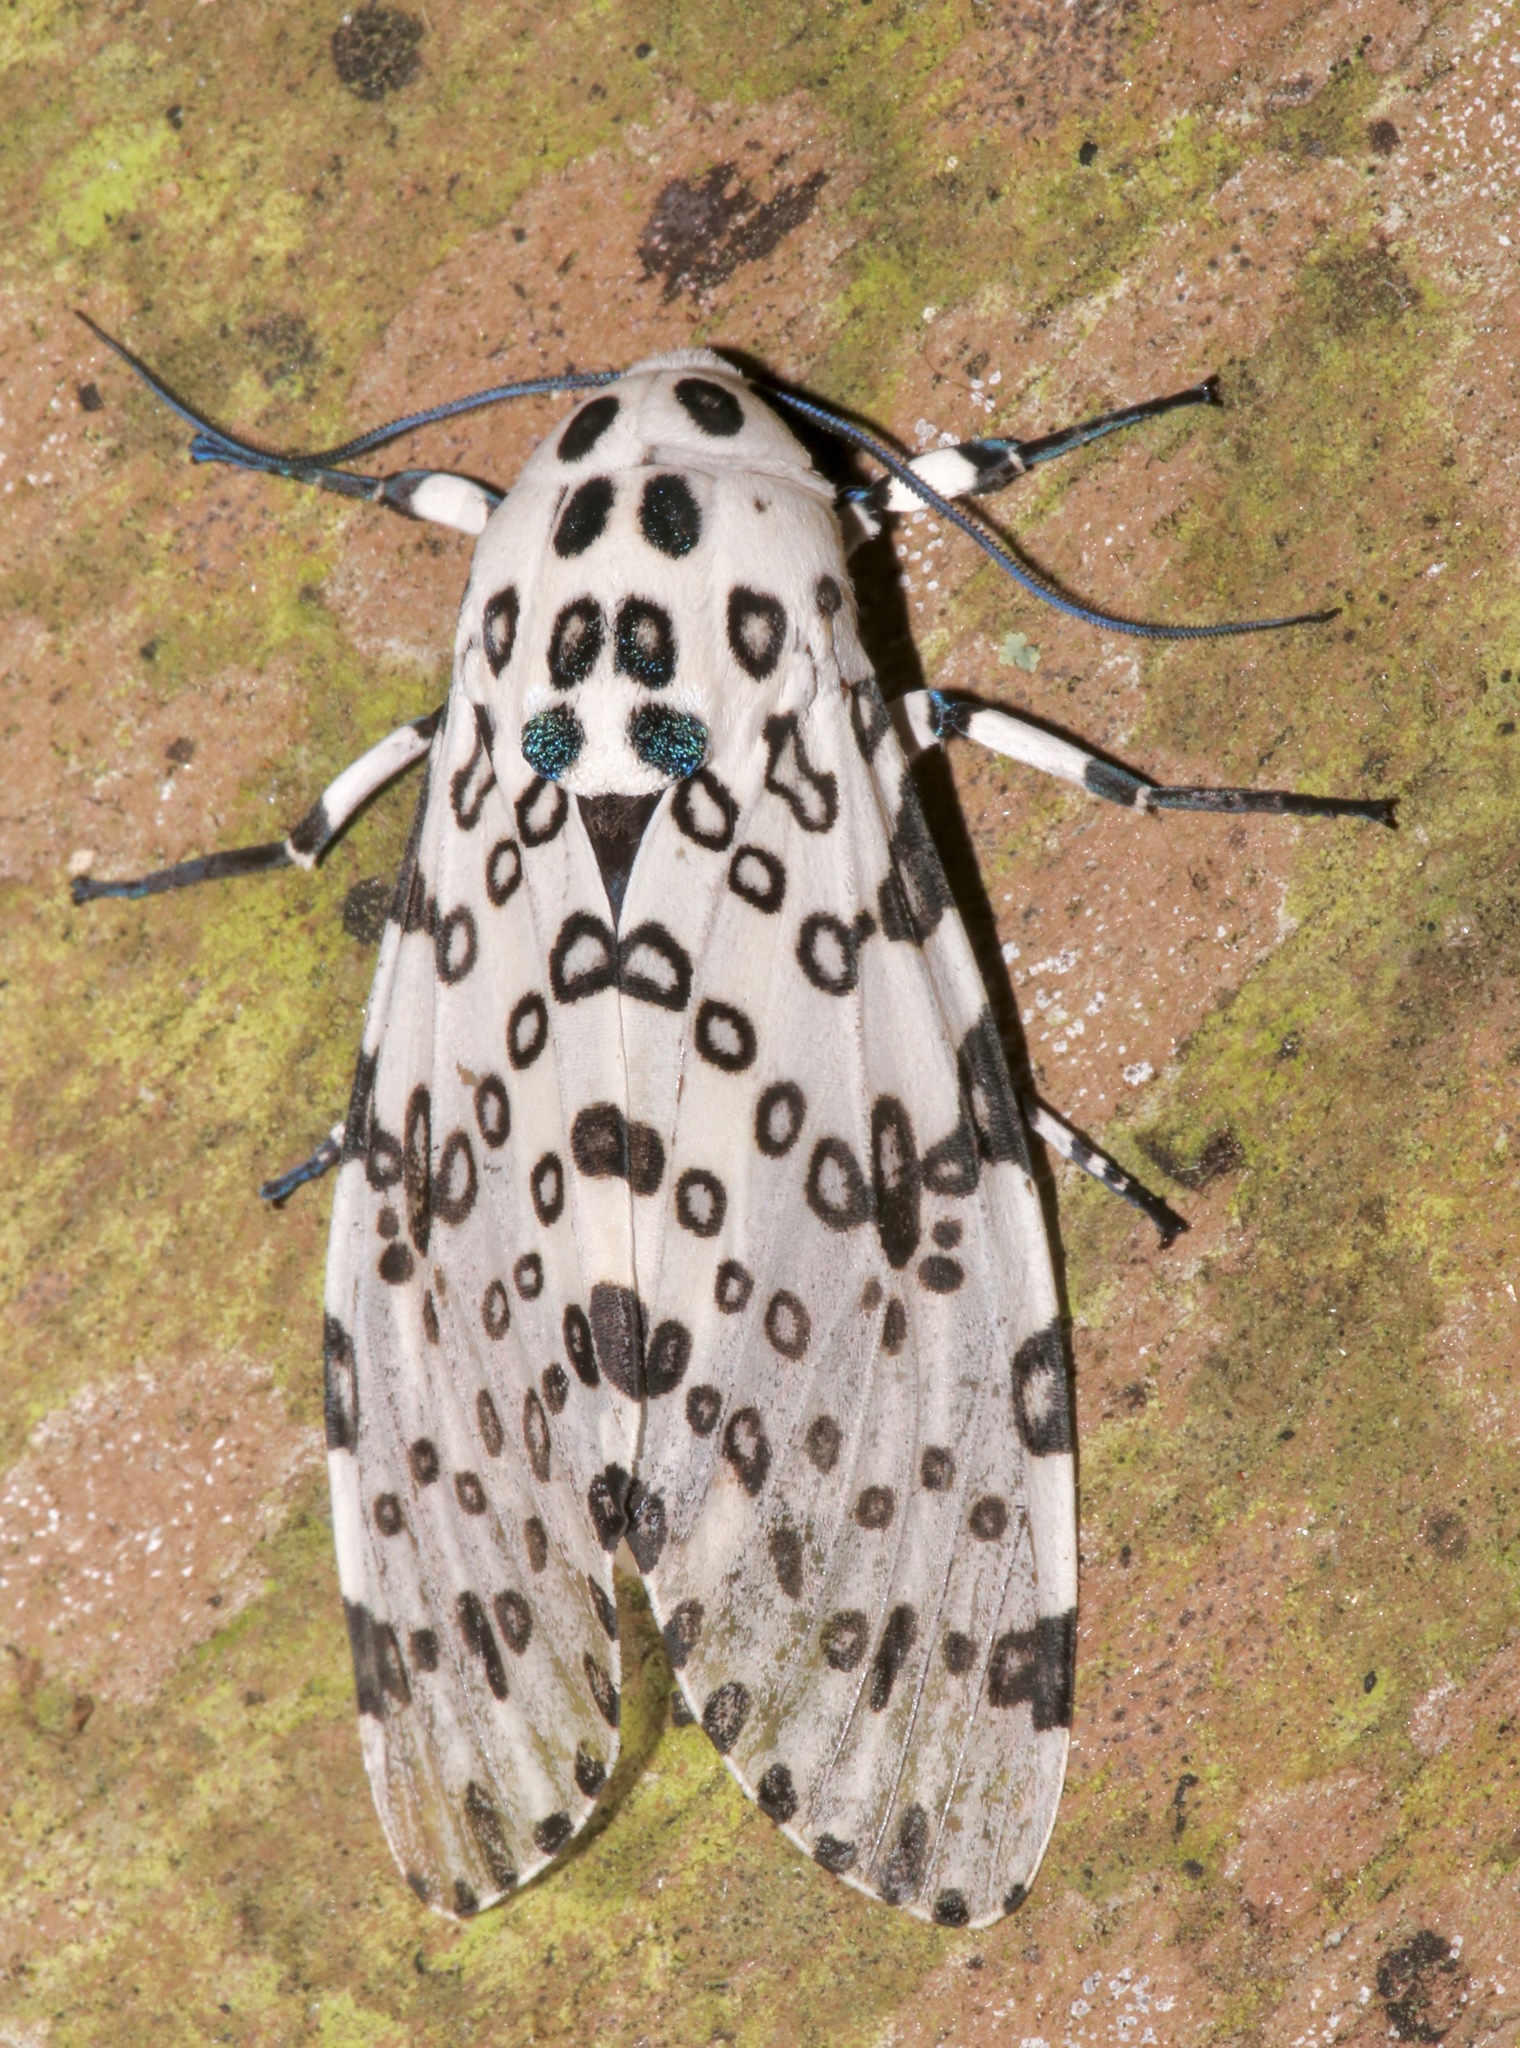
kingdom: Animalia
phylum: Arthropoda
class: Insecta
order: Lepidoptera
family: Erebidae
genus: Hypercompe
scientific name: Hypercompe scribonia
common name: Giant leopard moth
